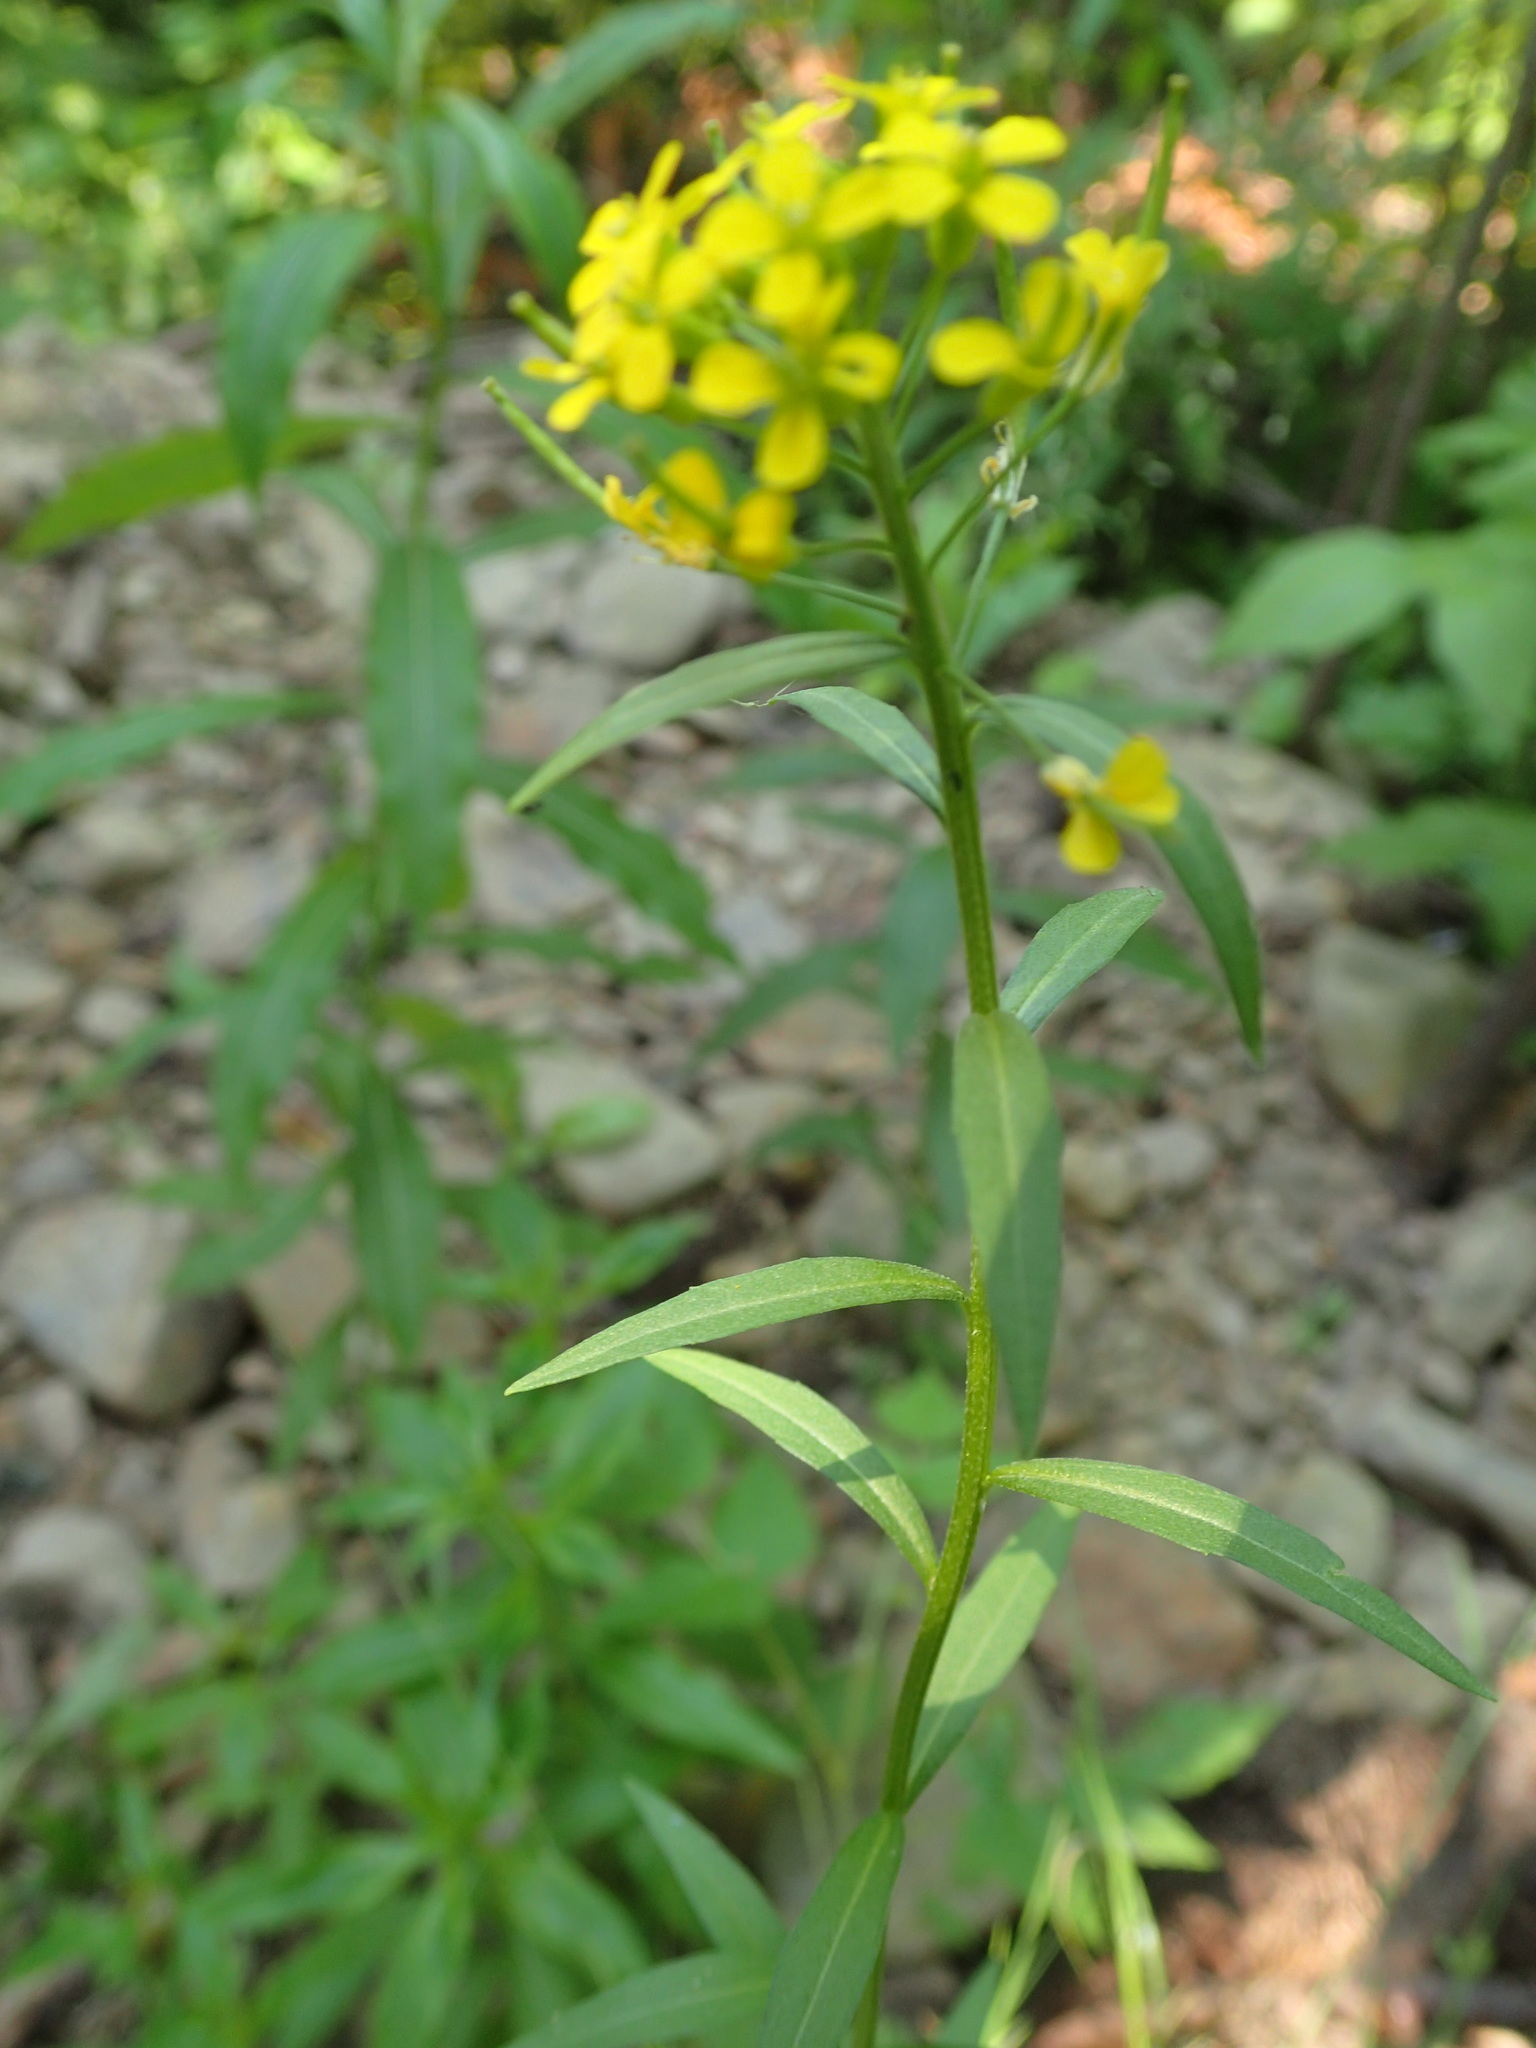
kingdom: Plantae
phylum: Tracheophyta
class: Magnoliopsida
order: Brassicales
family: Brassicaceae
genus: Erysimum
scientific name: Erysimum cheiranthoides
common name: Treacle mustard
